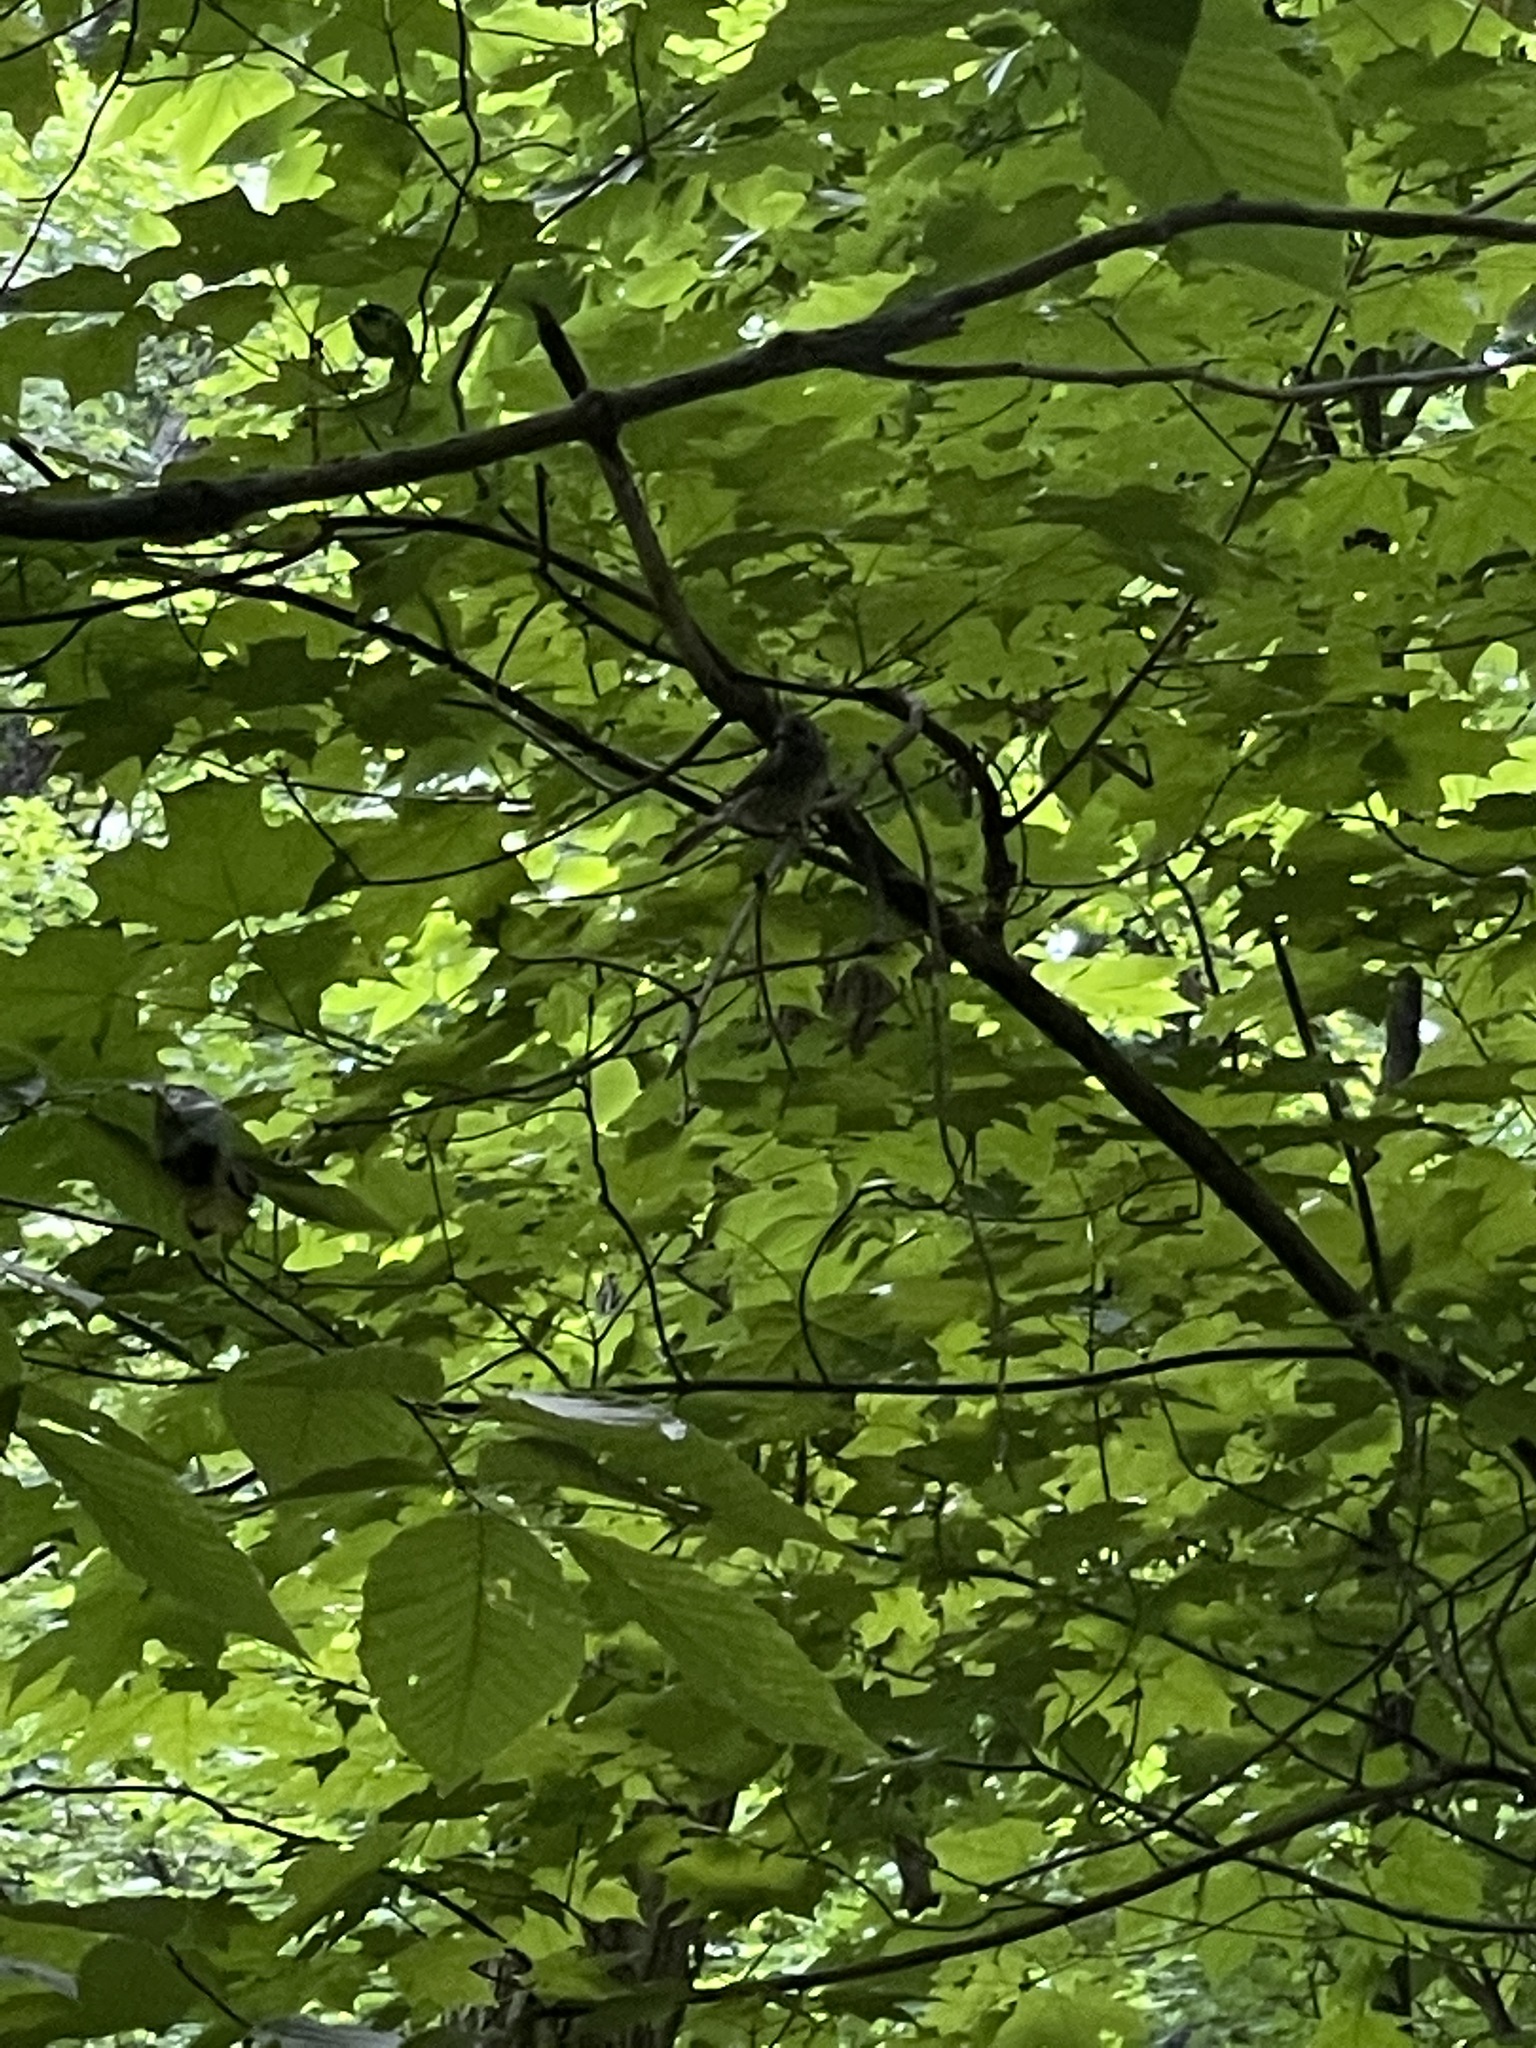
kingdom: Animalia
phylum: Chordata
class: Aves
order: Passeriformes
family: Passerellidae
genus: Junco
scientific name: Junco hyemalis
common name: Dark-eyed junco
